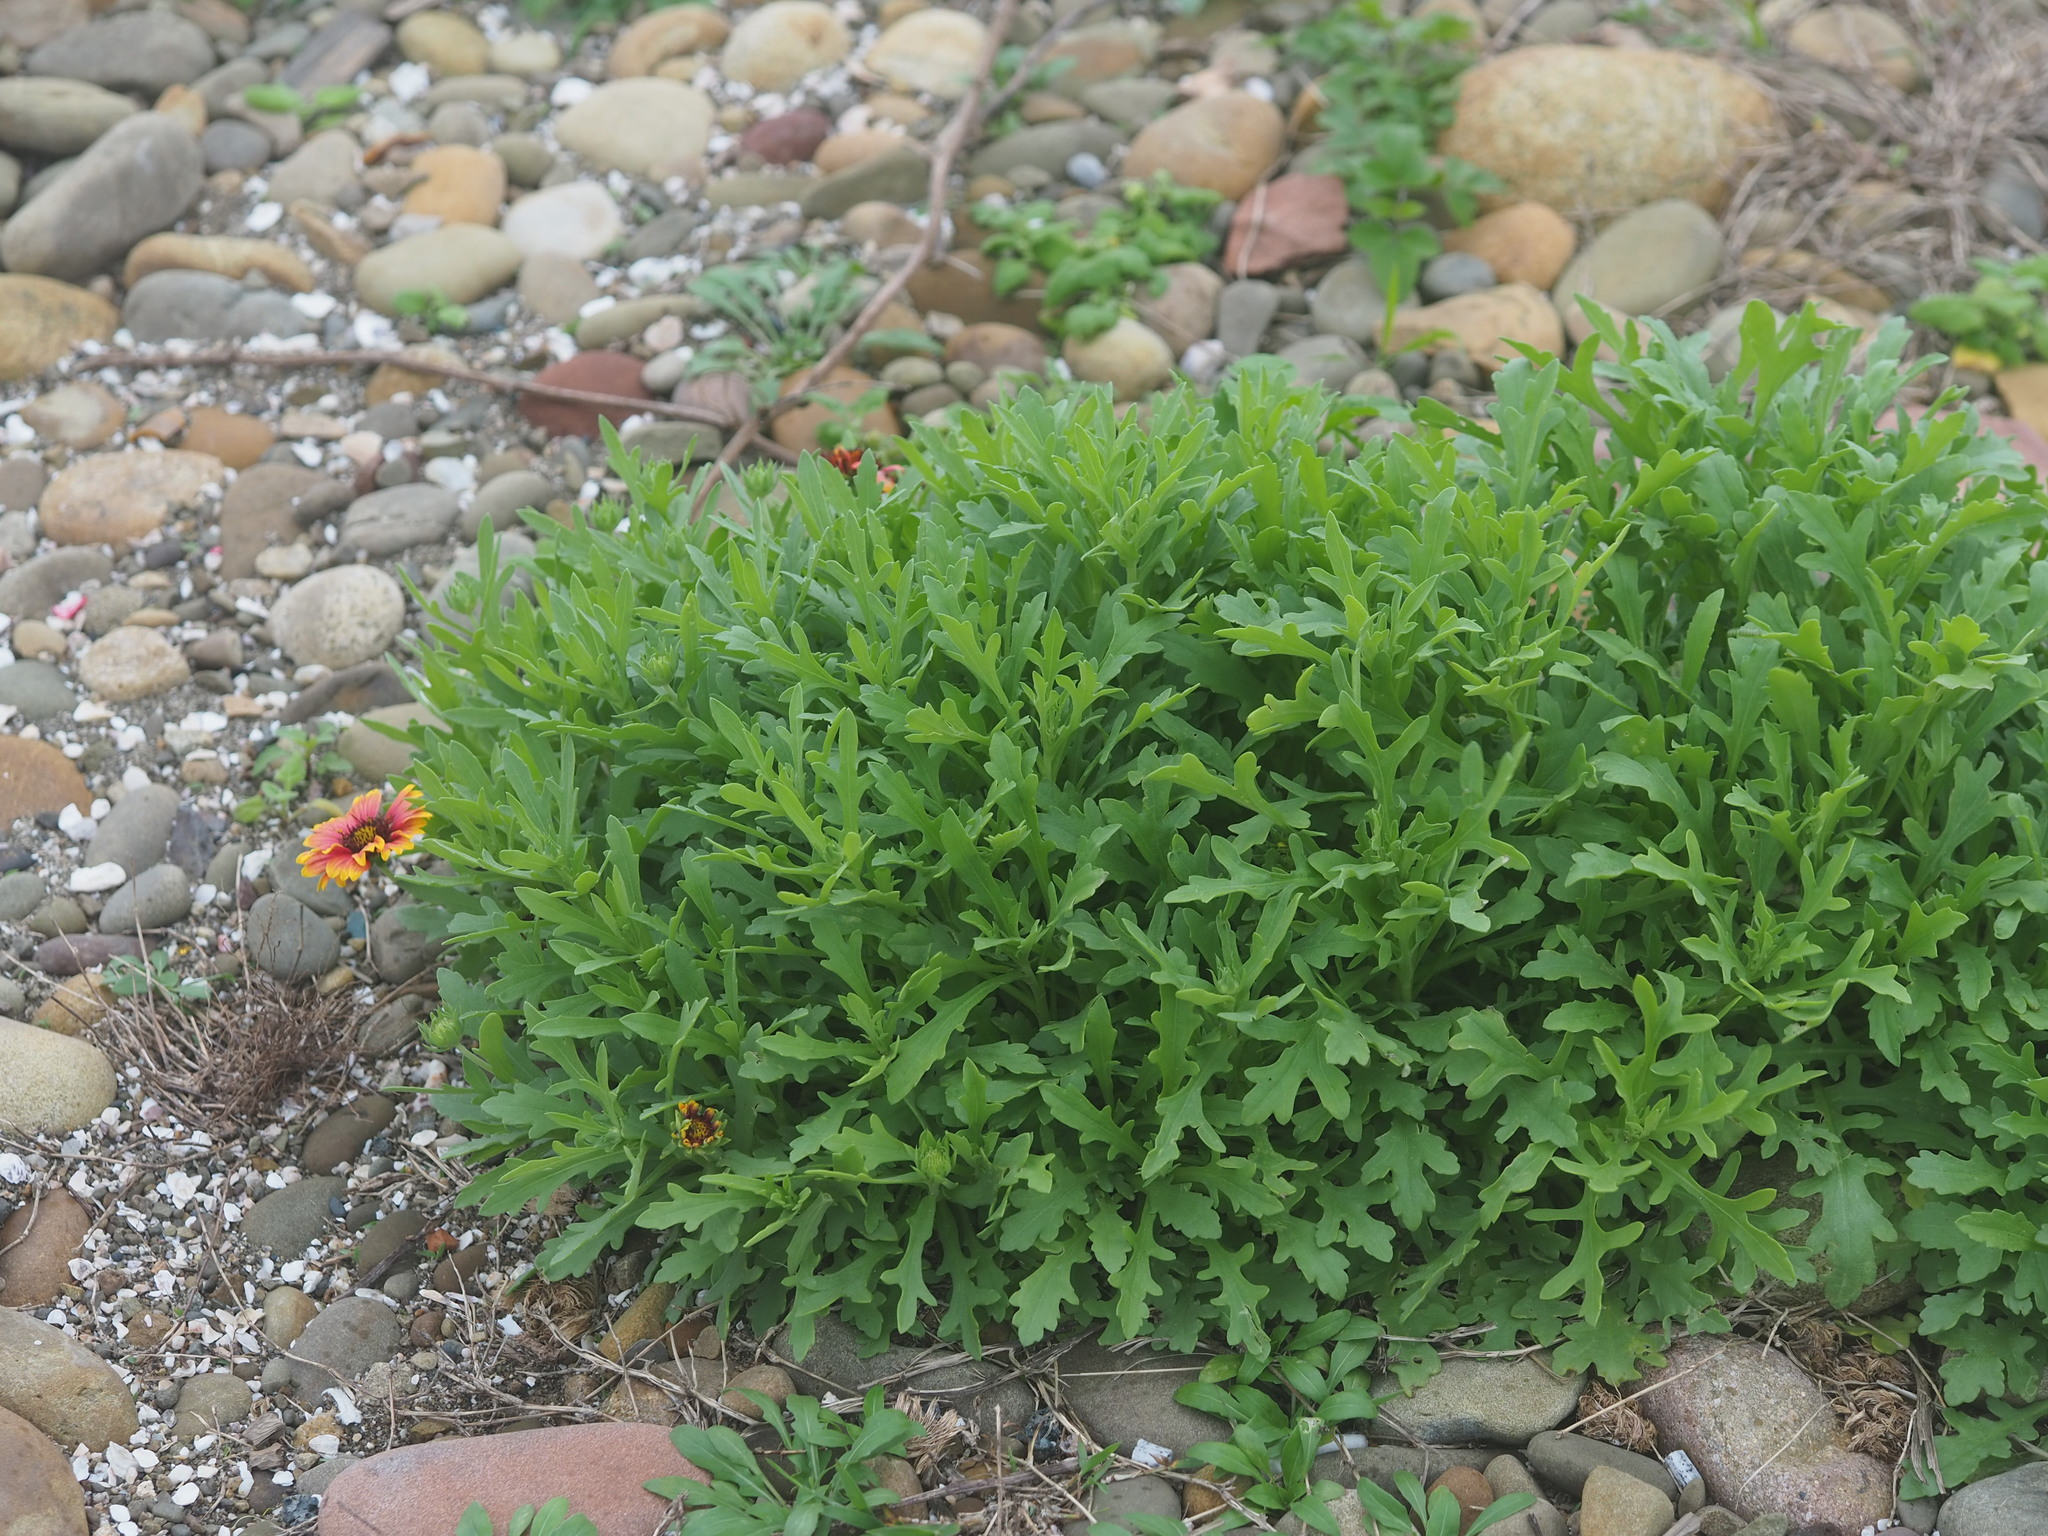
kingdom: Plantae
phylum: Tracheophyta
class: Magnoliopsida
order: Asterales
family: Asteraceae
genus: Gaillardia
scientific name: Gaillardia pulchella
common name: Firewheel
